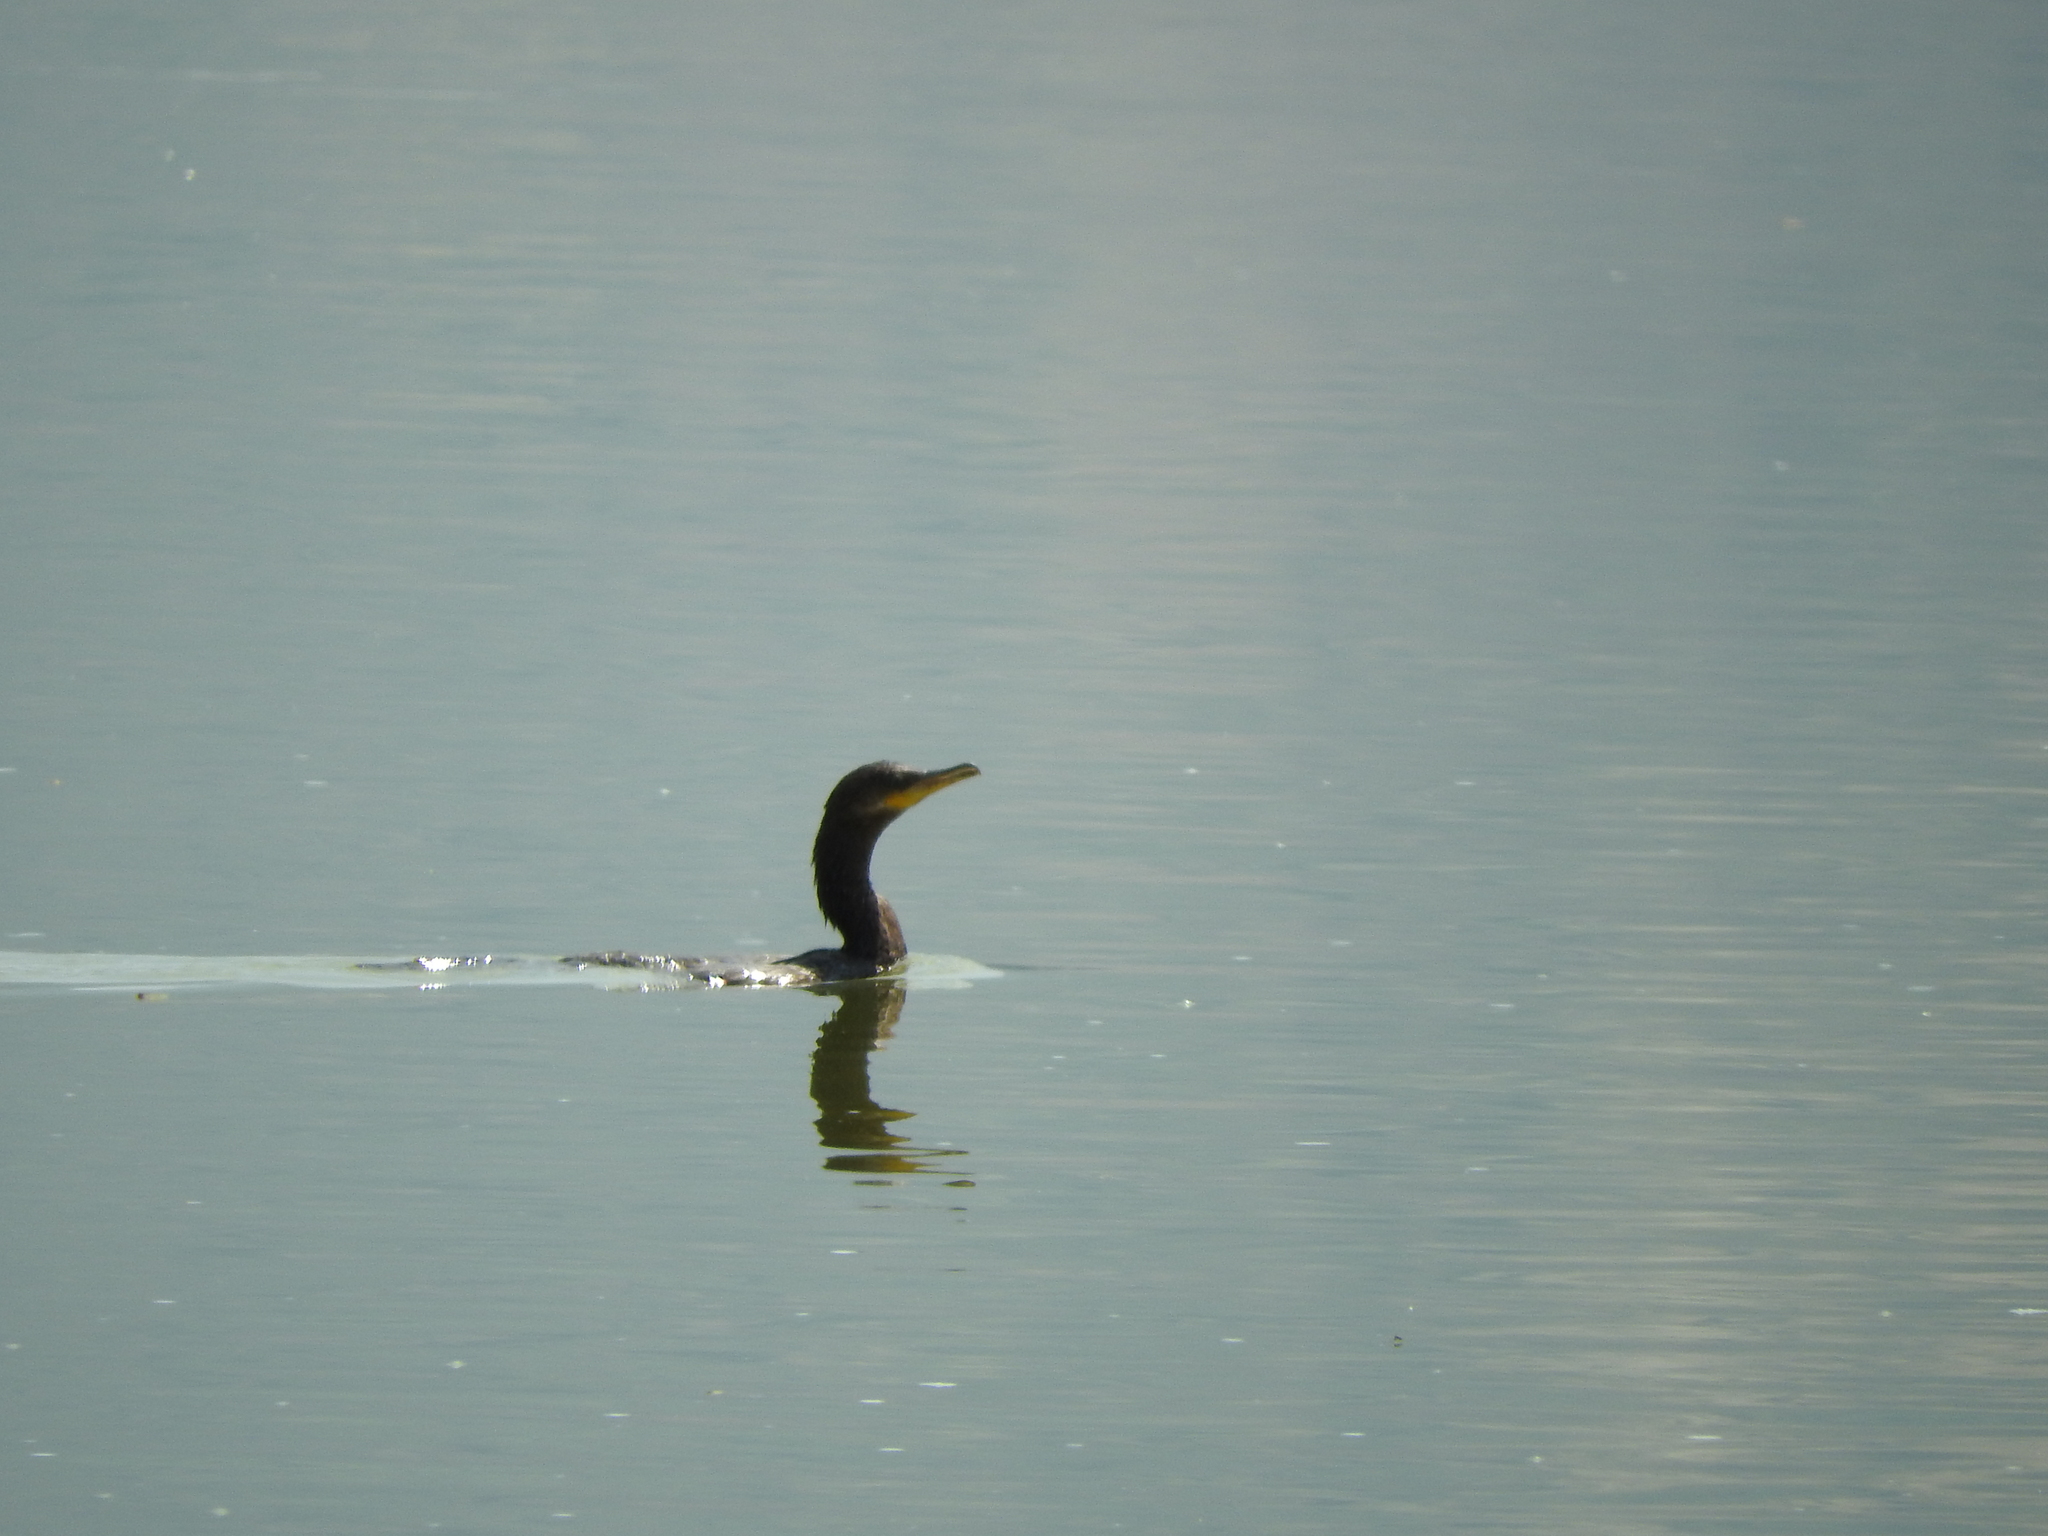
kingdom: Animalia
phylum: Chordata
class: Aves
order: Suliformes
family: Phalacrocoracidae
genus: Phalacrocorax
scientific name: Phalacrocorax brasilianus
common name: Neotropic cormorant
